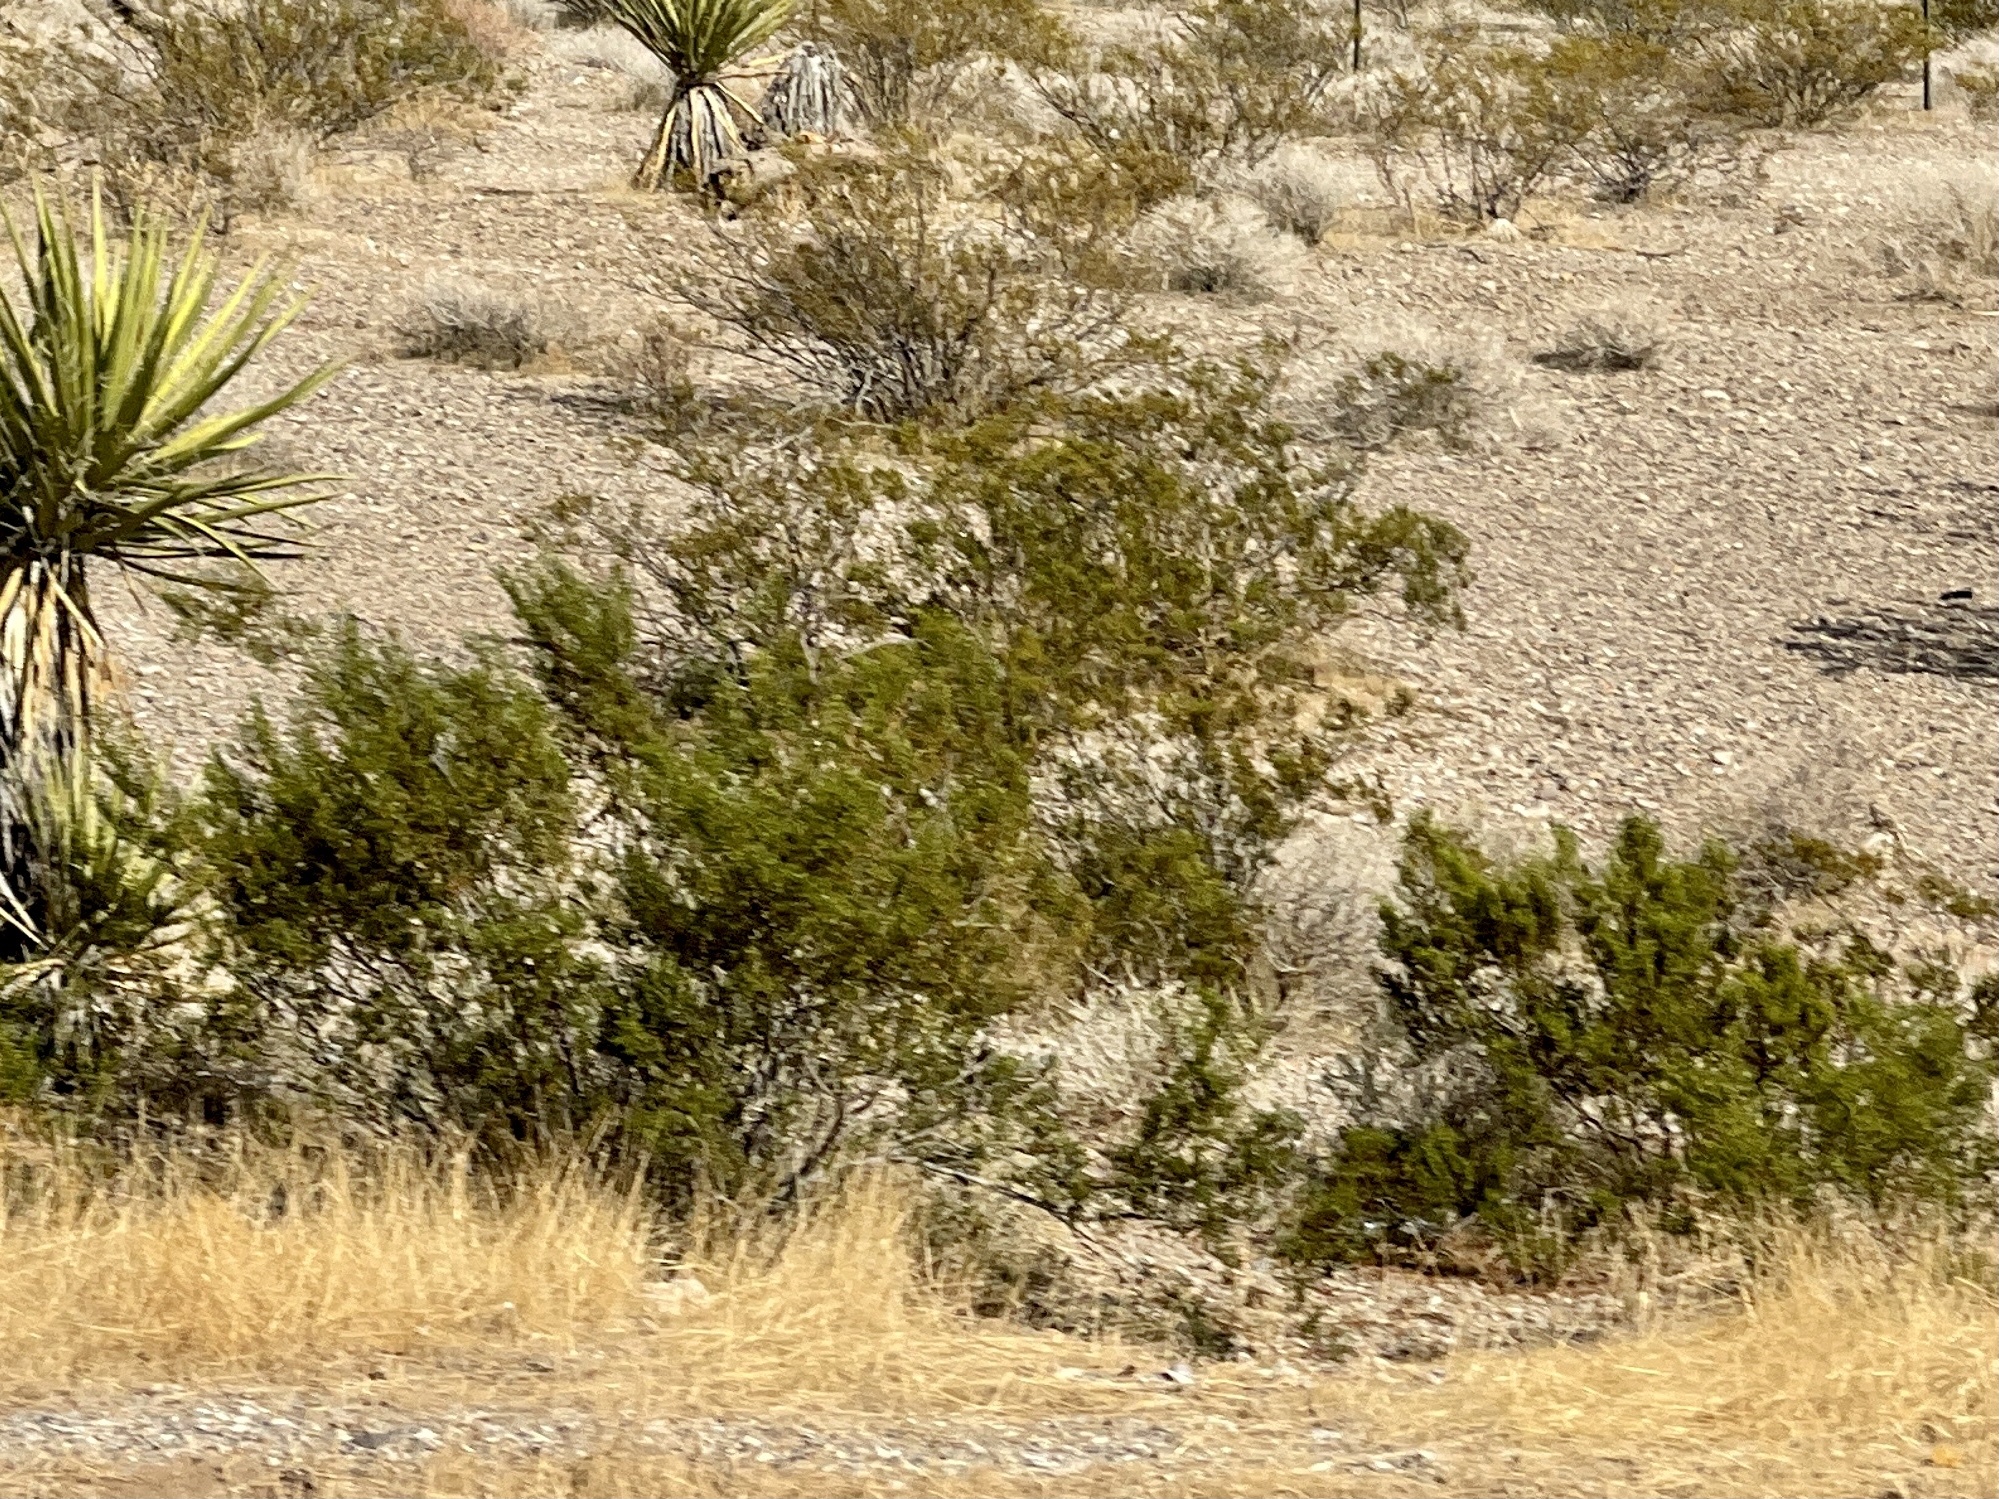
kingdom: Plantae
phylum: Tracheophyta
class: Magnoliopsida
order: Zygophyllales
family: Zygophyllaceae
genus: Larrea
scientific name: Larrea tridentata
